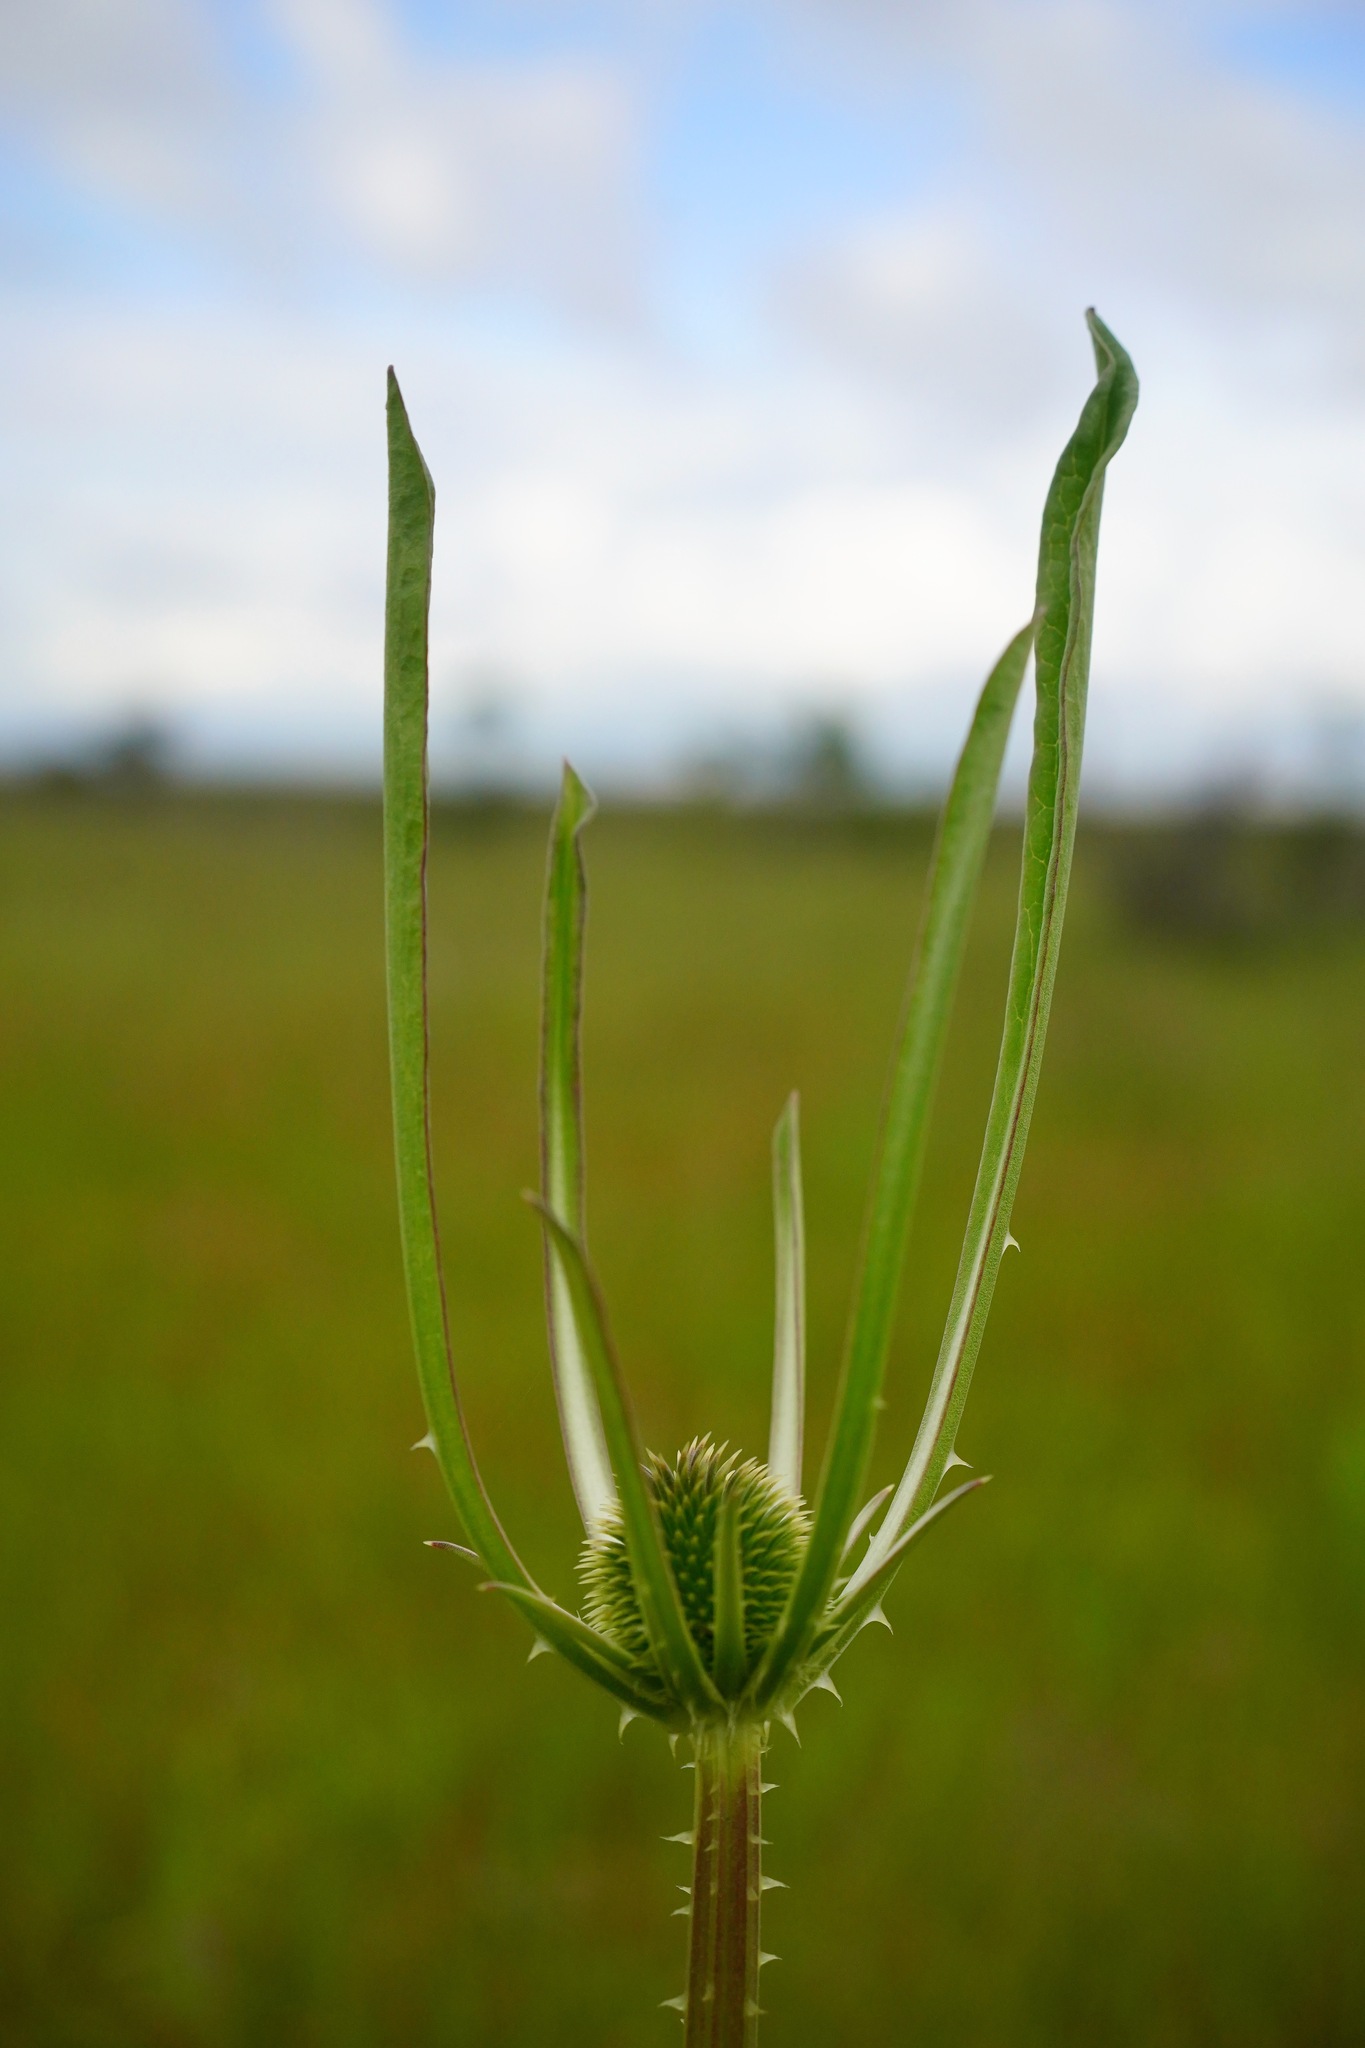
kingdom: Plantae
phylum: Tracheophyta
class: Magnoliopsida
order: Dipsacales
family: Caprifoliaceae
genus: Dipsacus
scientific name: Dipsacus sativus
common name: Fuller's teasel
